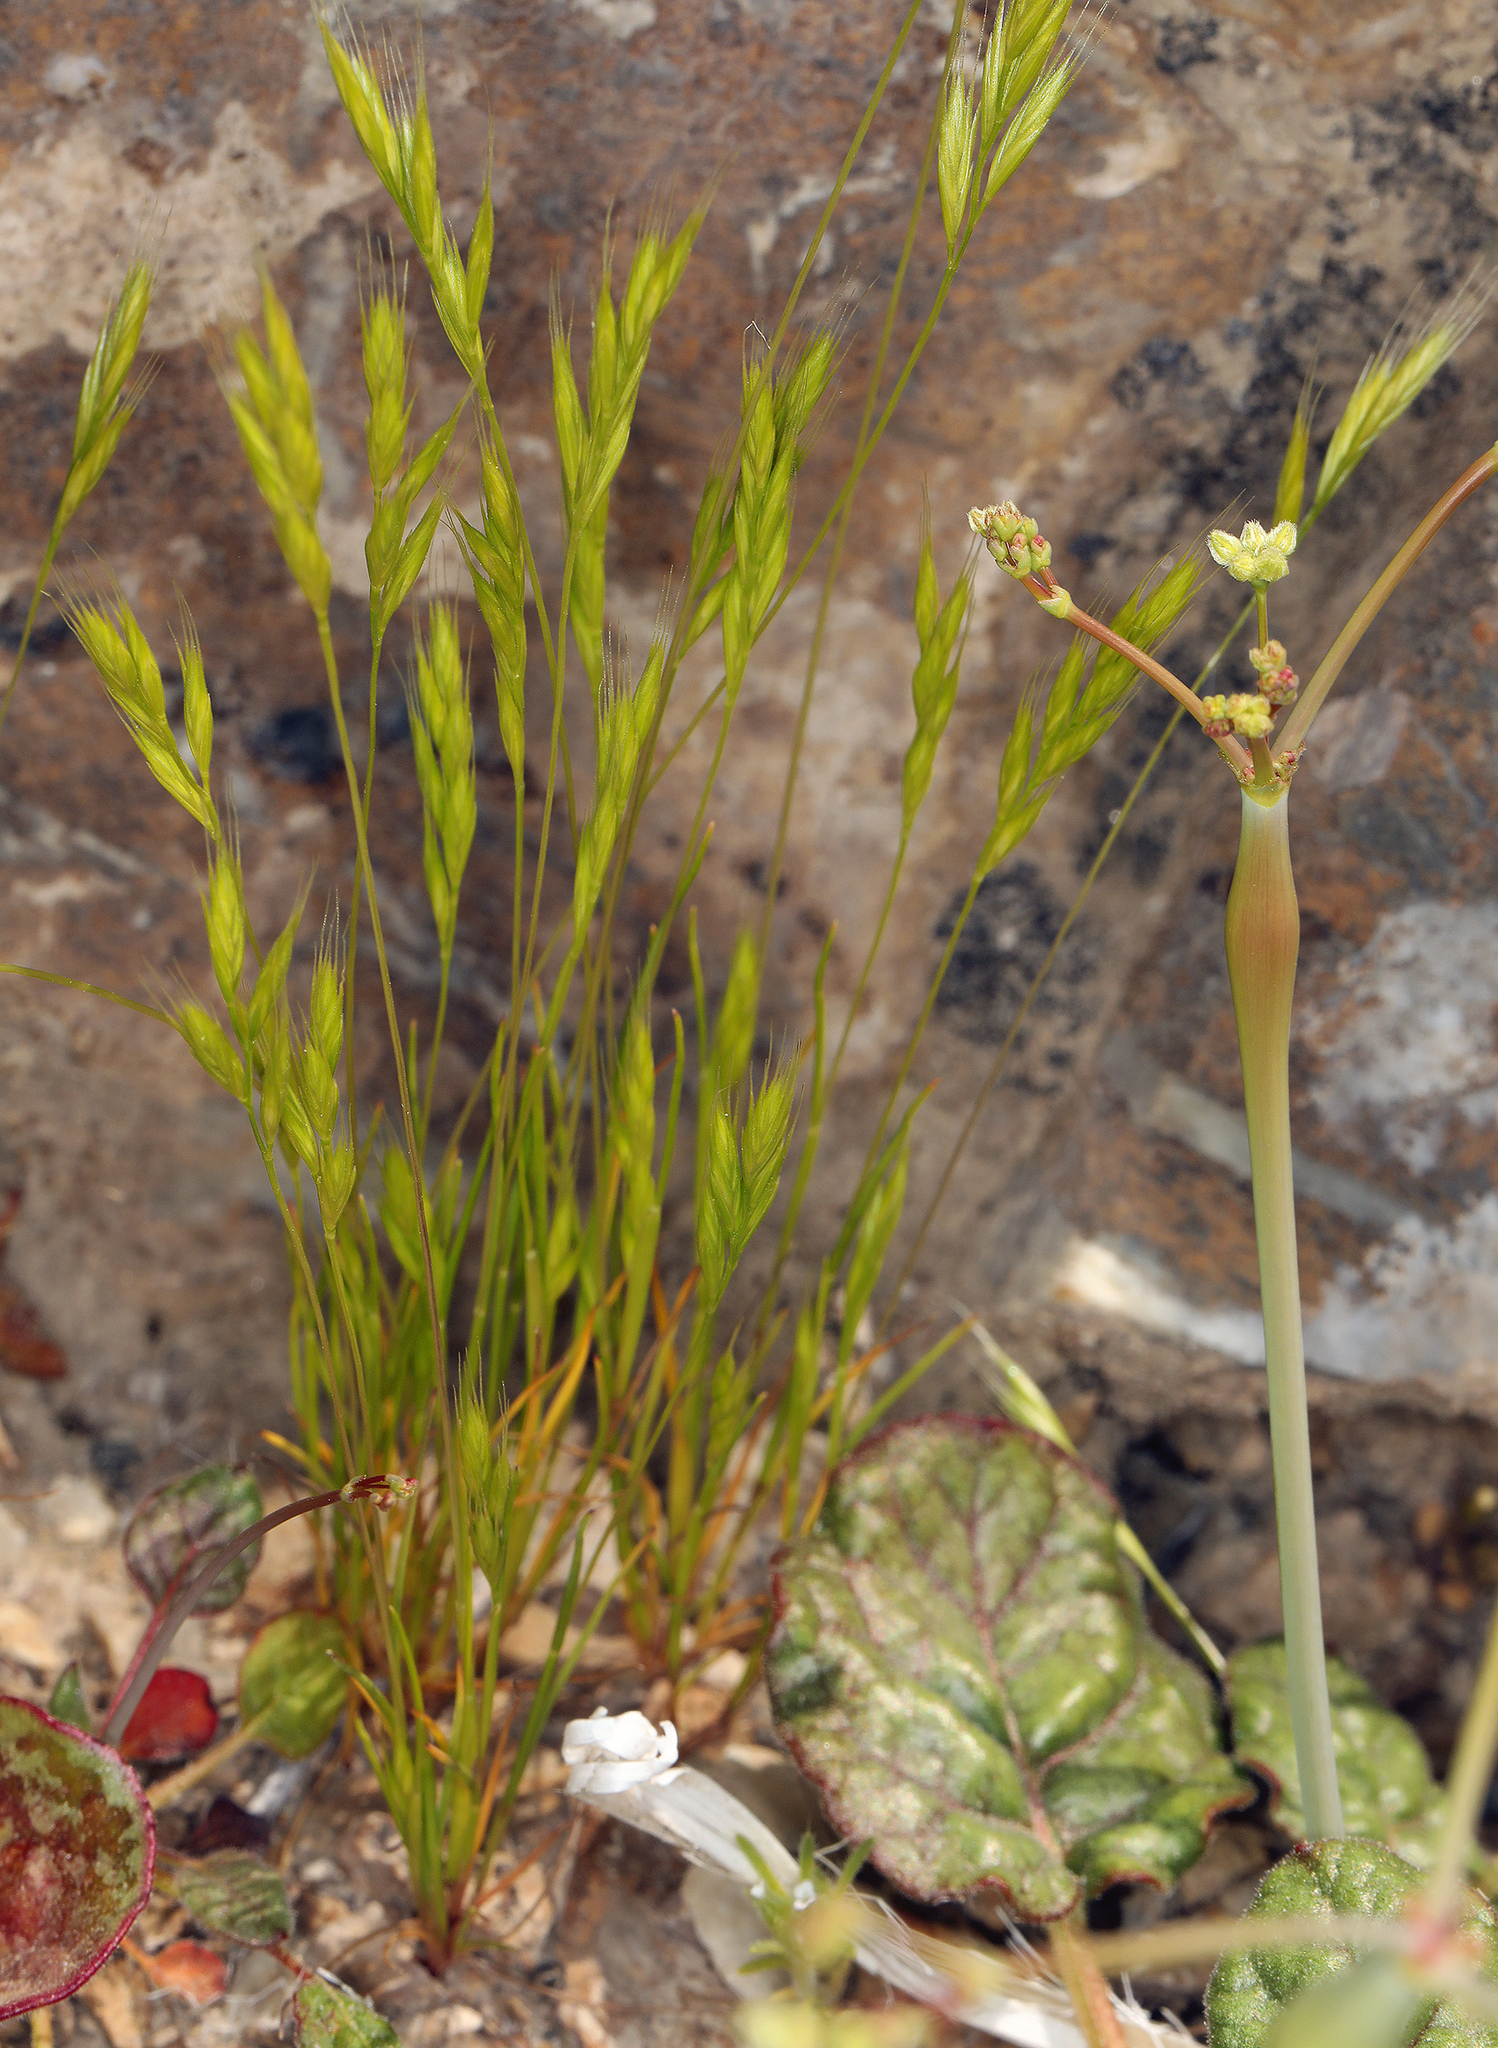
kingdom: Plantae
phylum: Tracheophyta
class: Liliopsida
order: Poales
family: Poaceae
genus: Festuca
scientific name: Festuca octoflora
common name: Sixweeks grass
